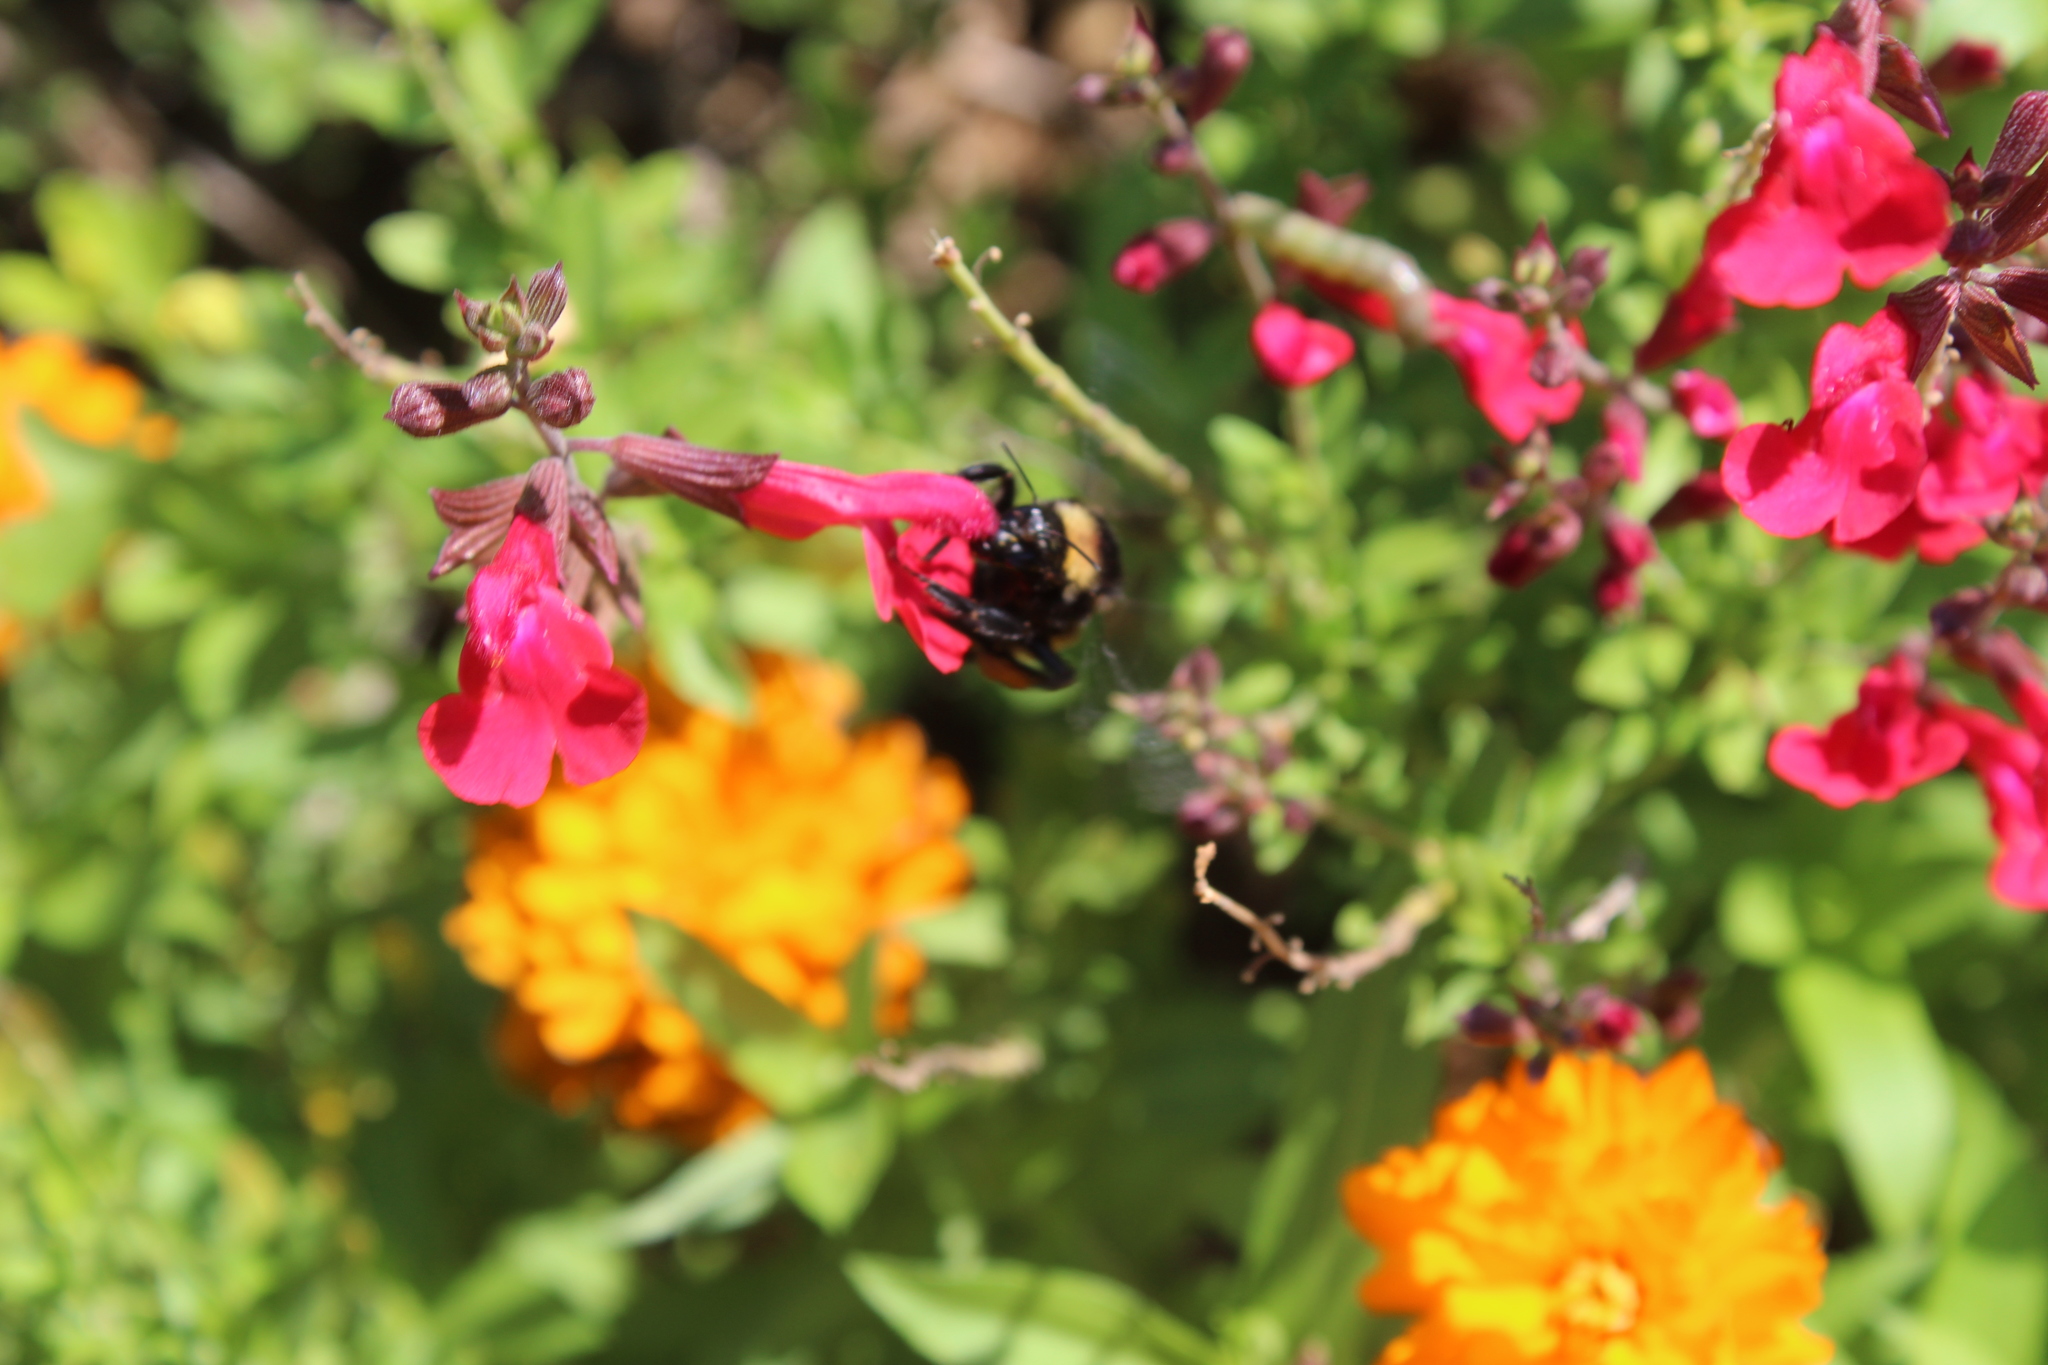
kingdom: Animalia
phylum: Arthropoda
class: Insecta
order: Hymenoptera
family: Apidae
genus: Bombus
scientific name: Bombus pensylvanicus
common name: Bumble bee
